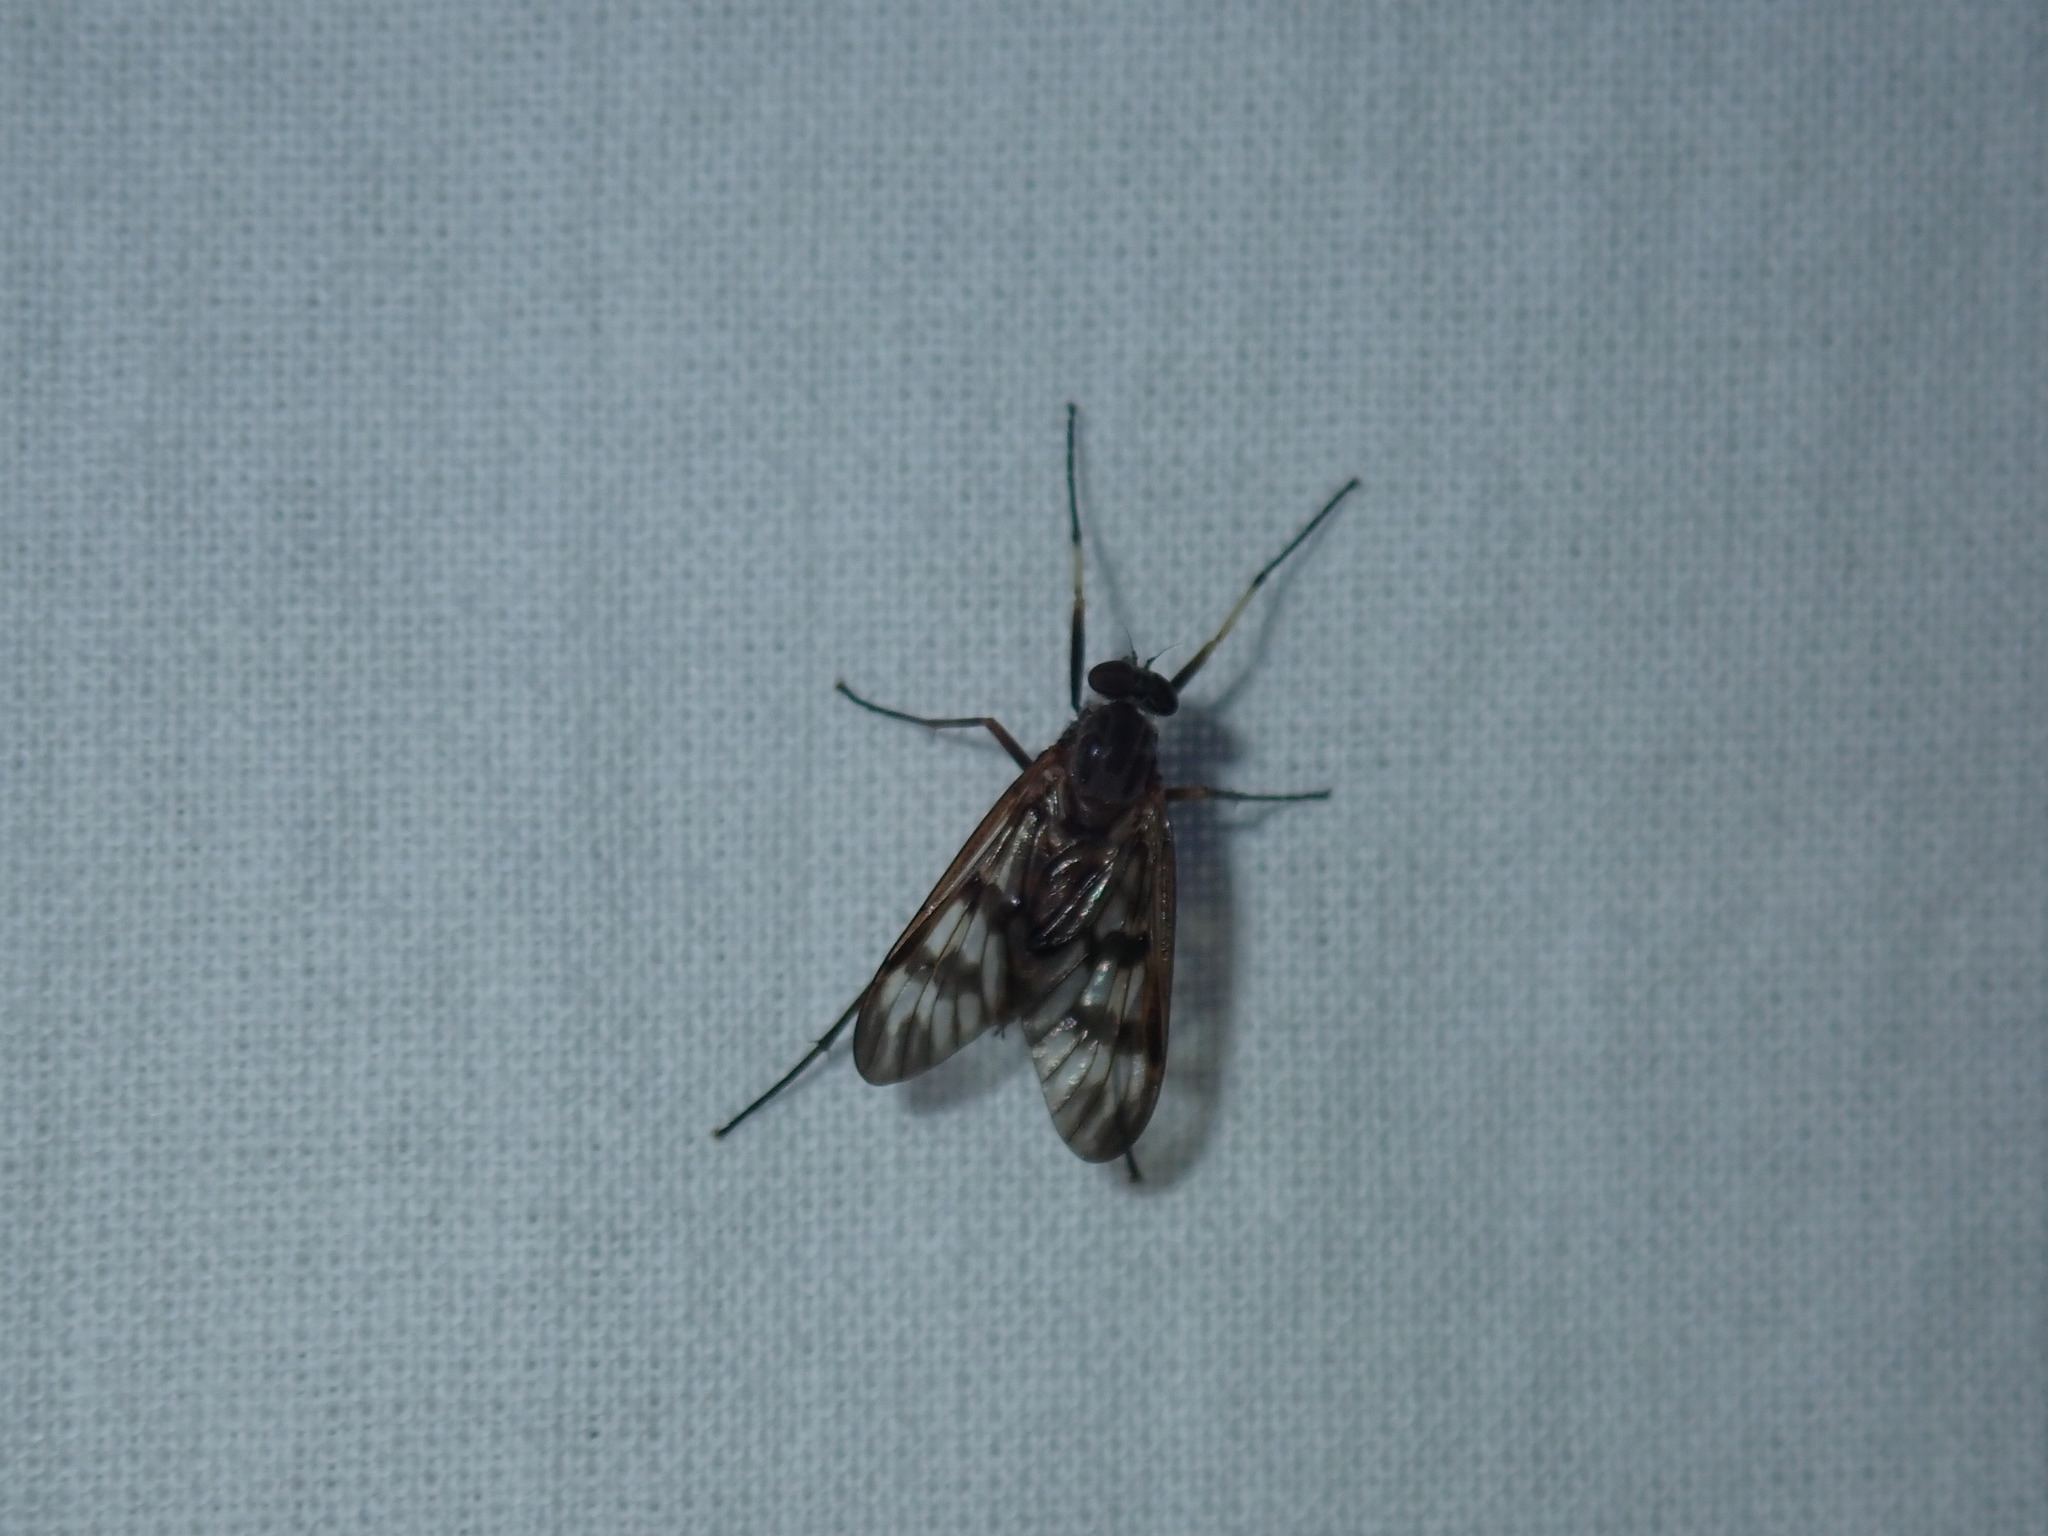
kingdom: Animalia
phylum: Arthropoda
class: Insecta
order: Diptera
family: Rhagionidae
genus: Rhagio
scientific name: Rhagio mystaceus
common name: Common snipe fly
